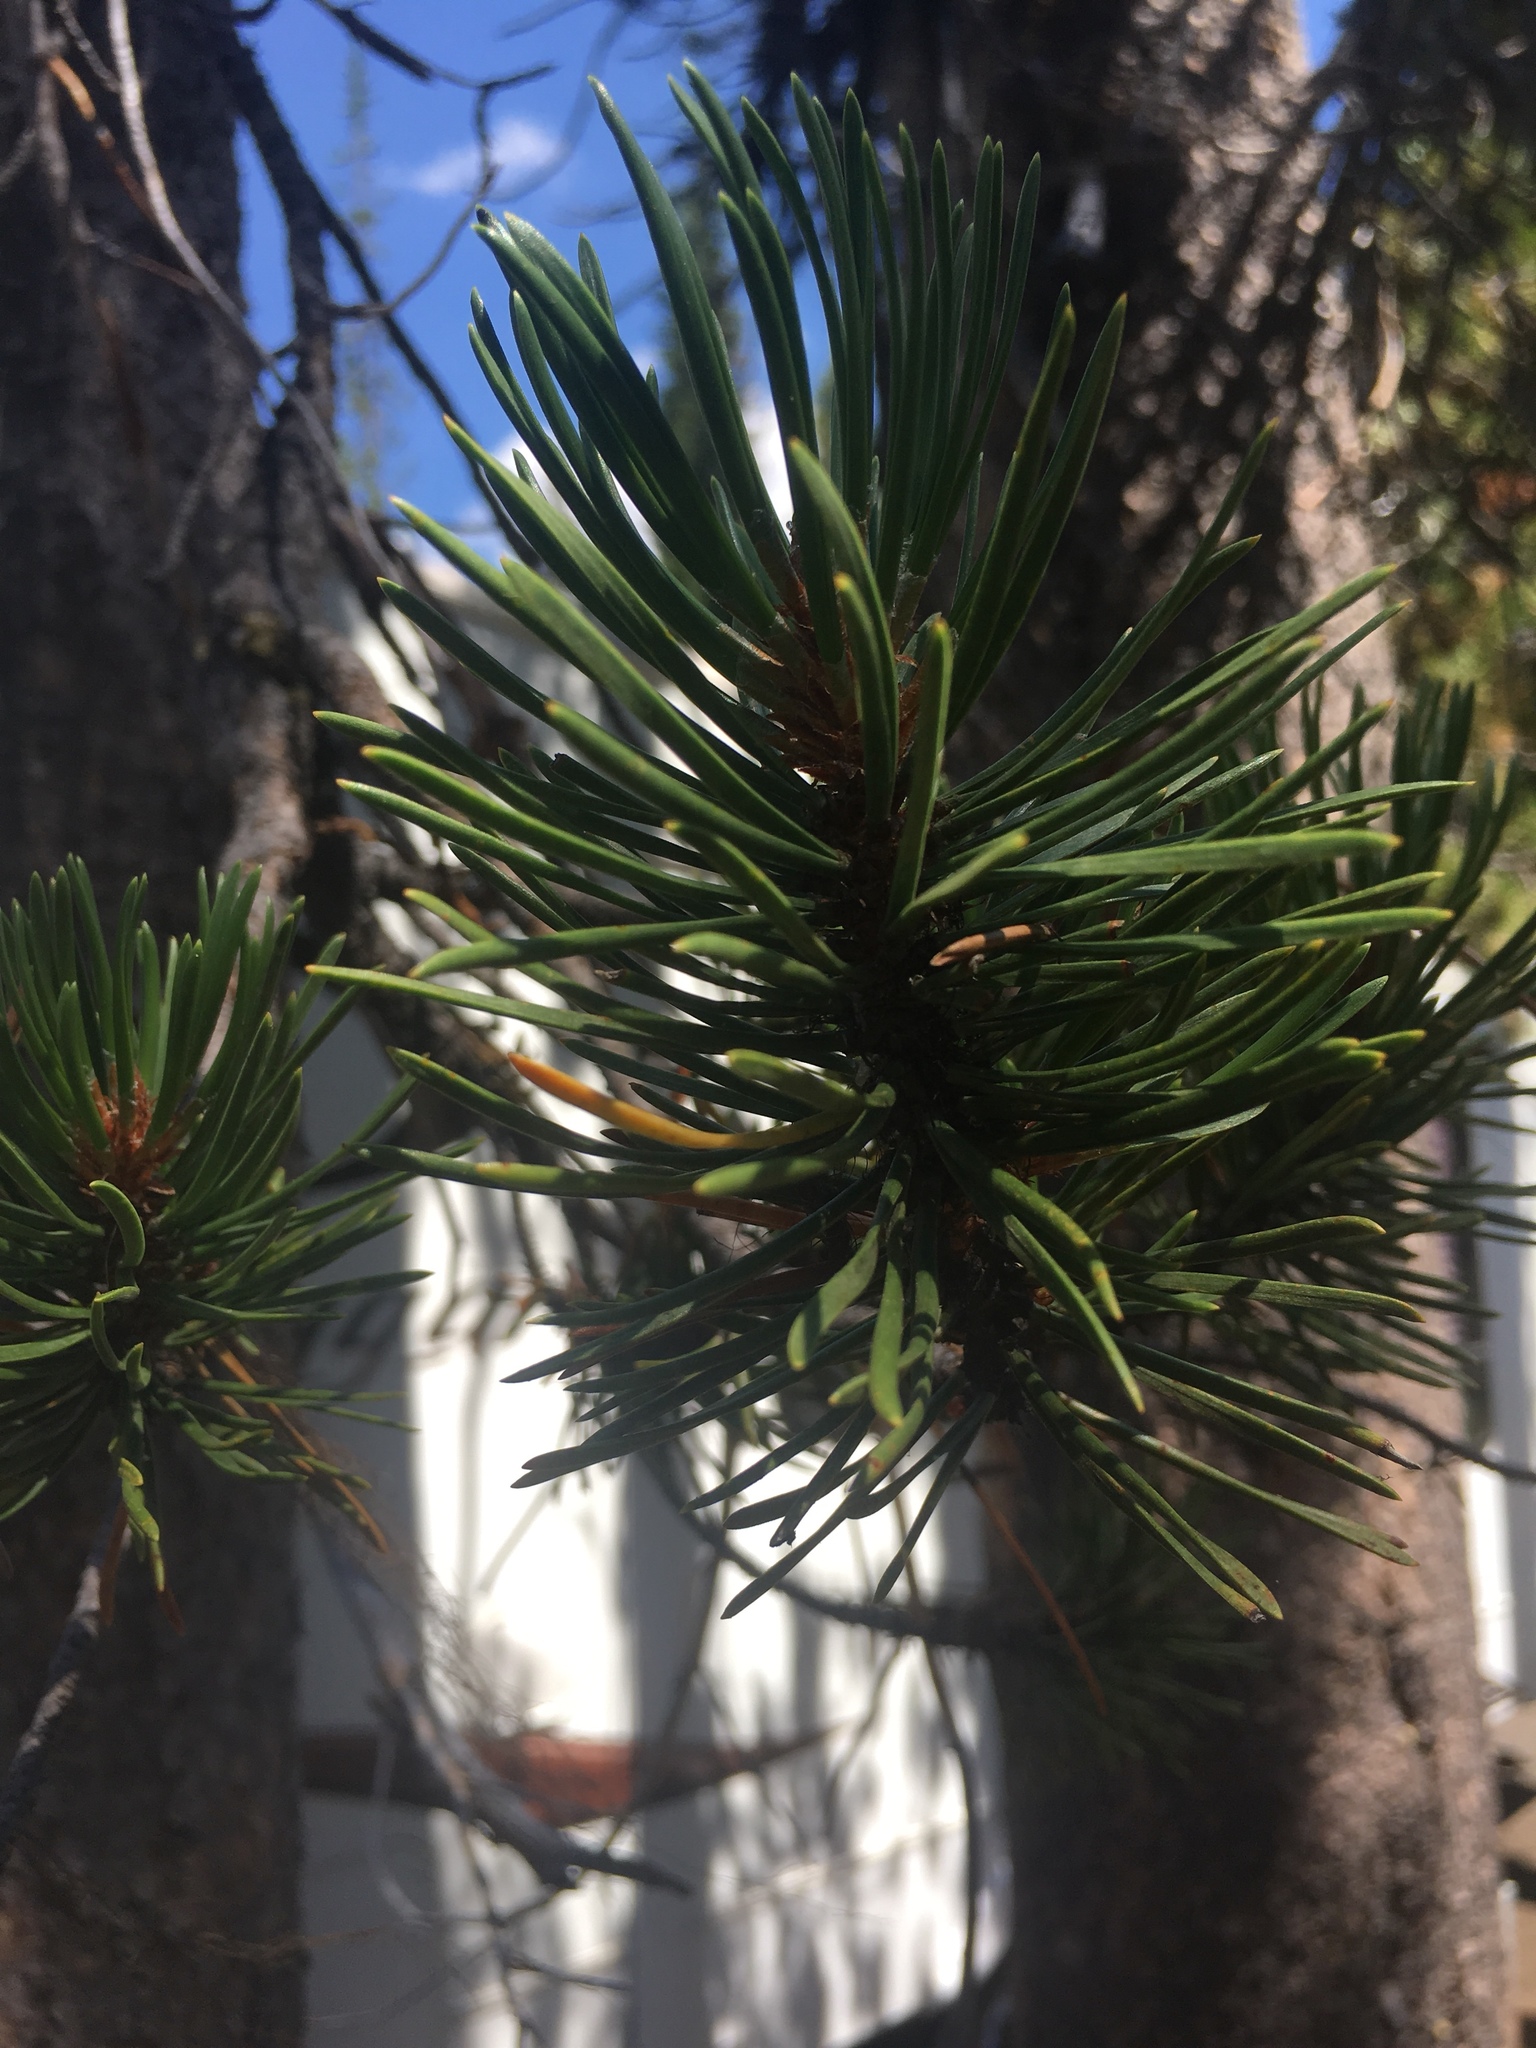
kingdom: Plantae
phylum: Tracheophyta
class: Pinopsida
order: Pinales
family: Pinaceae
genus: Pinus
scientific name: Pinus contorta
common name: Lodgepole pine
